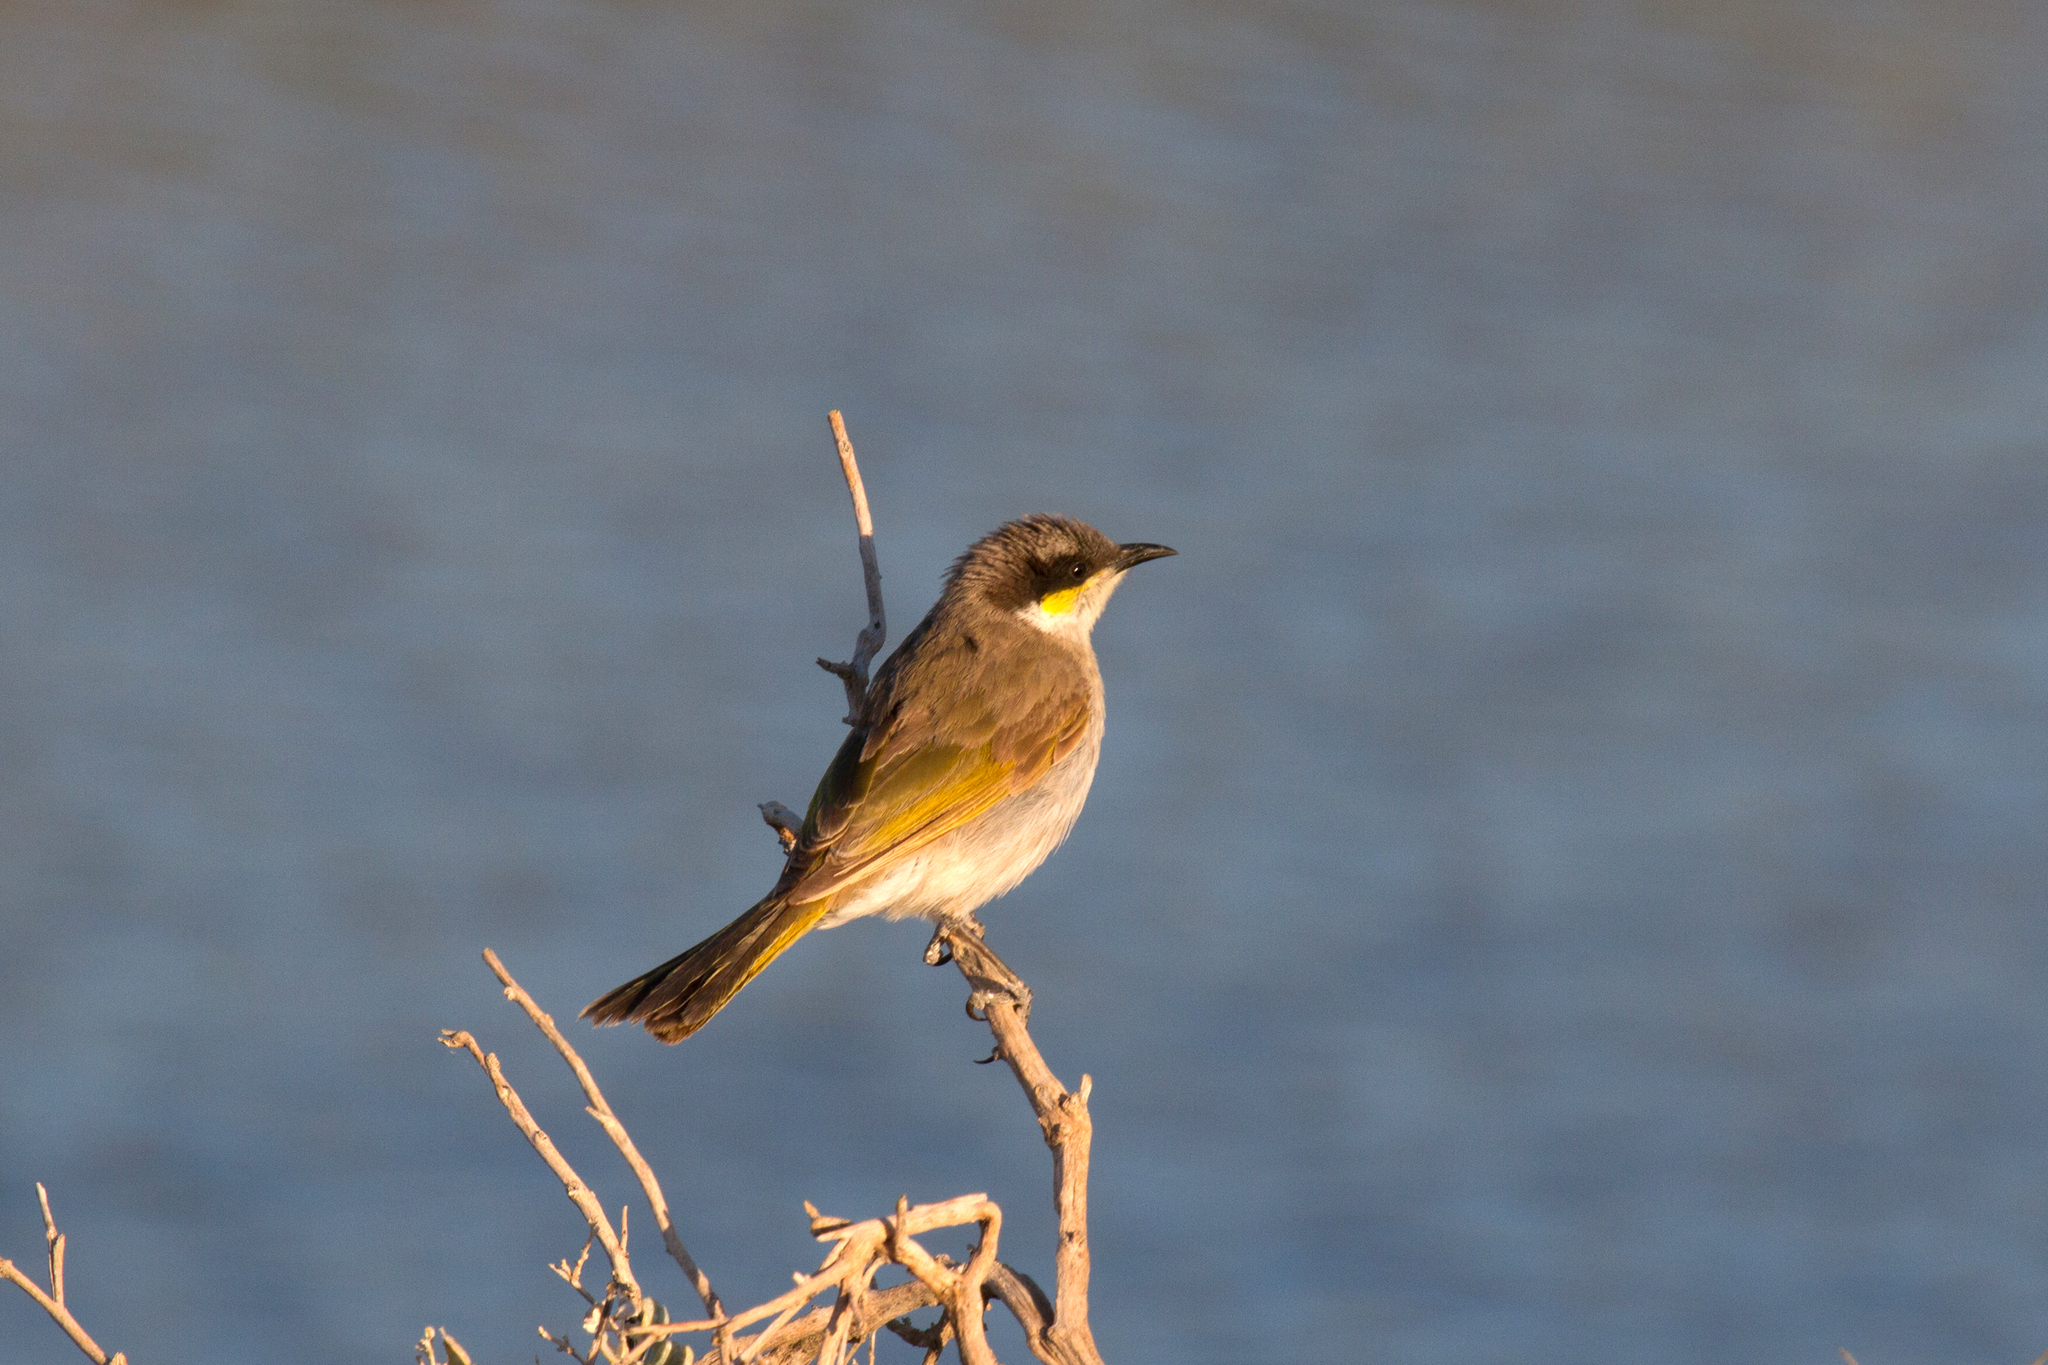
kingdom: Animalia
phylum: Chordata
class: Aves
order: Passeriformes
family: Meliphagidae
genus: Gavicalis
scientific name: Gavicalis virescens
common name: Singing honeyeater
